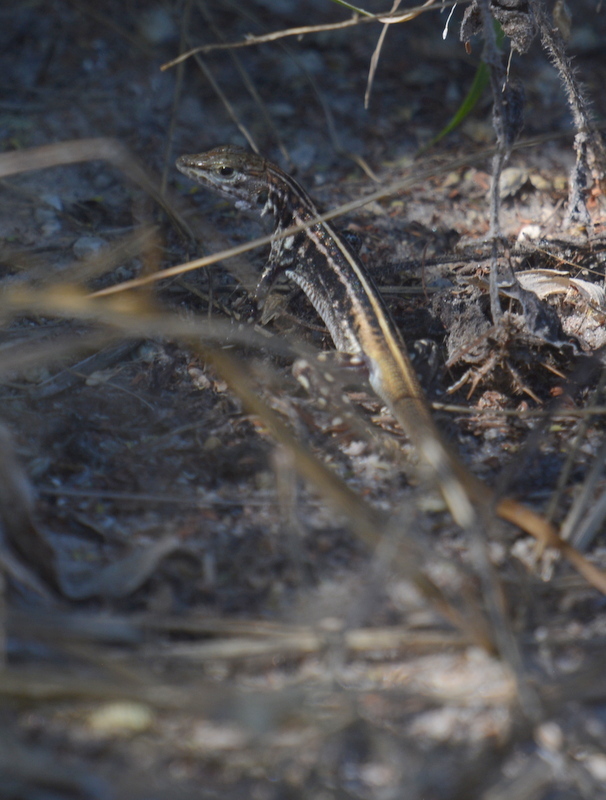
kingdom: Animalia
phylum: Chordata
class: Squamata
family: Lacertidae
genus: Heliobolus
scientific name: Heliobolus lugubris
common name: Bushveld lizard
